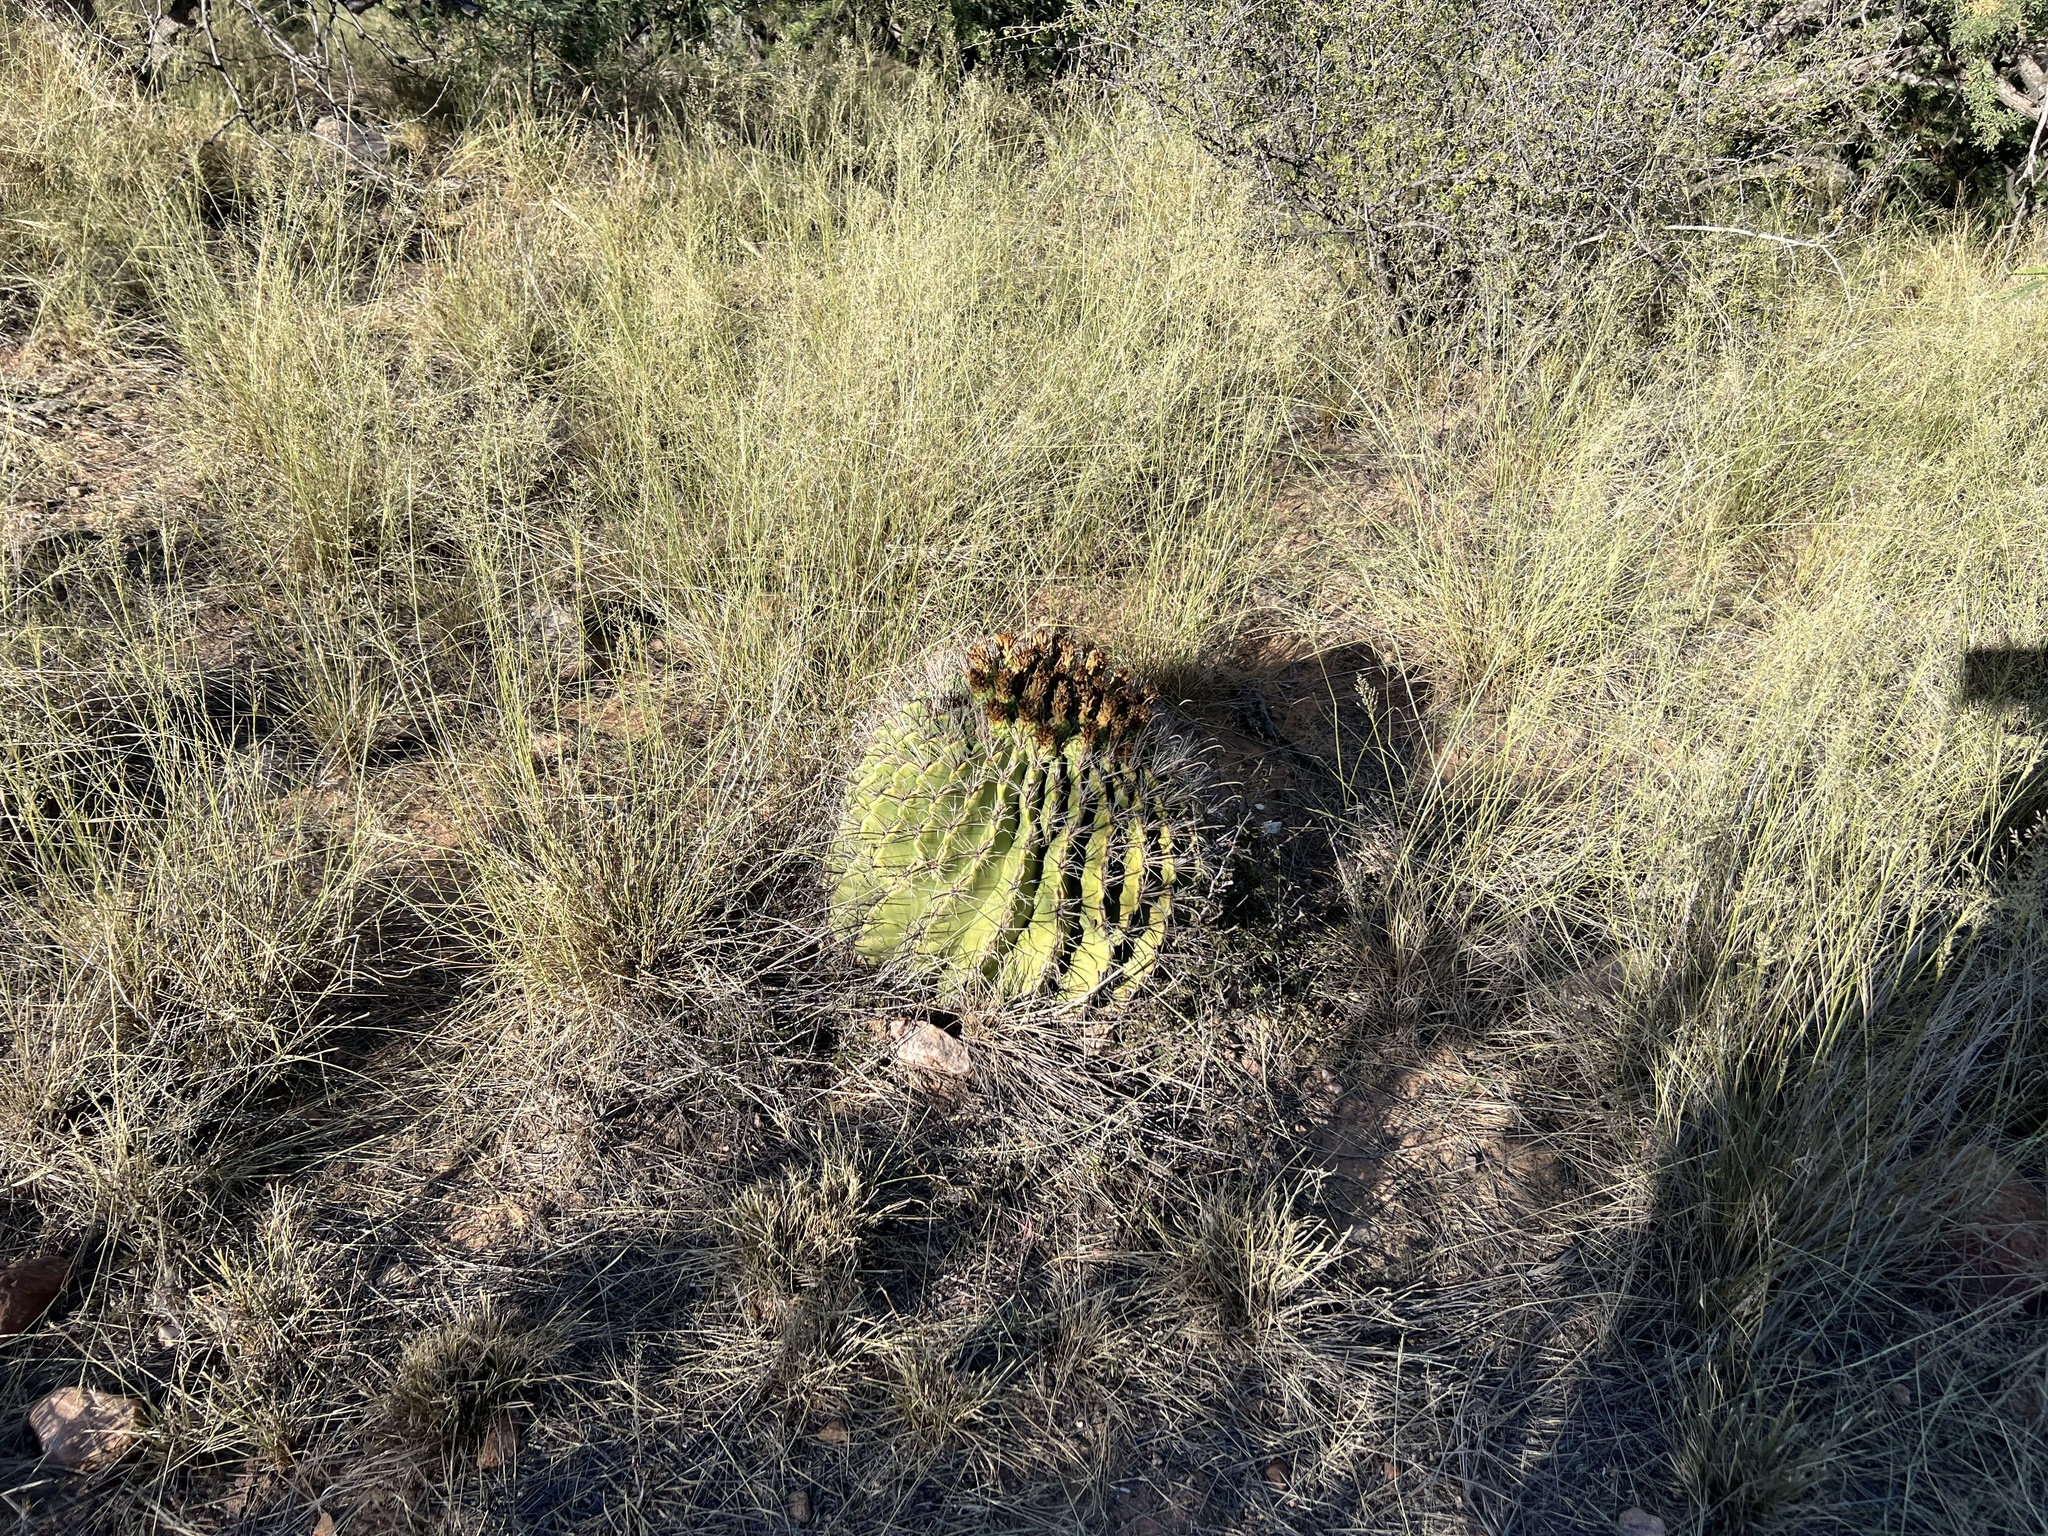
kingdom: Plantae
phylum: Tracheophyta
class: Magnoliopsida
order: Caryophyllales
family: Cactaceae
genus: Ferocactus
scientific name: Ferocactus wislizeni
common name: Candy barrel cactus
